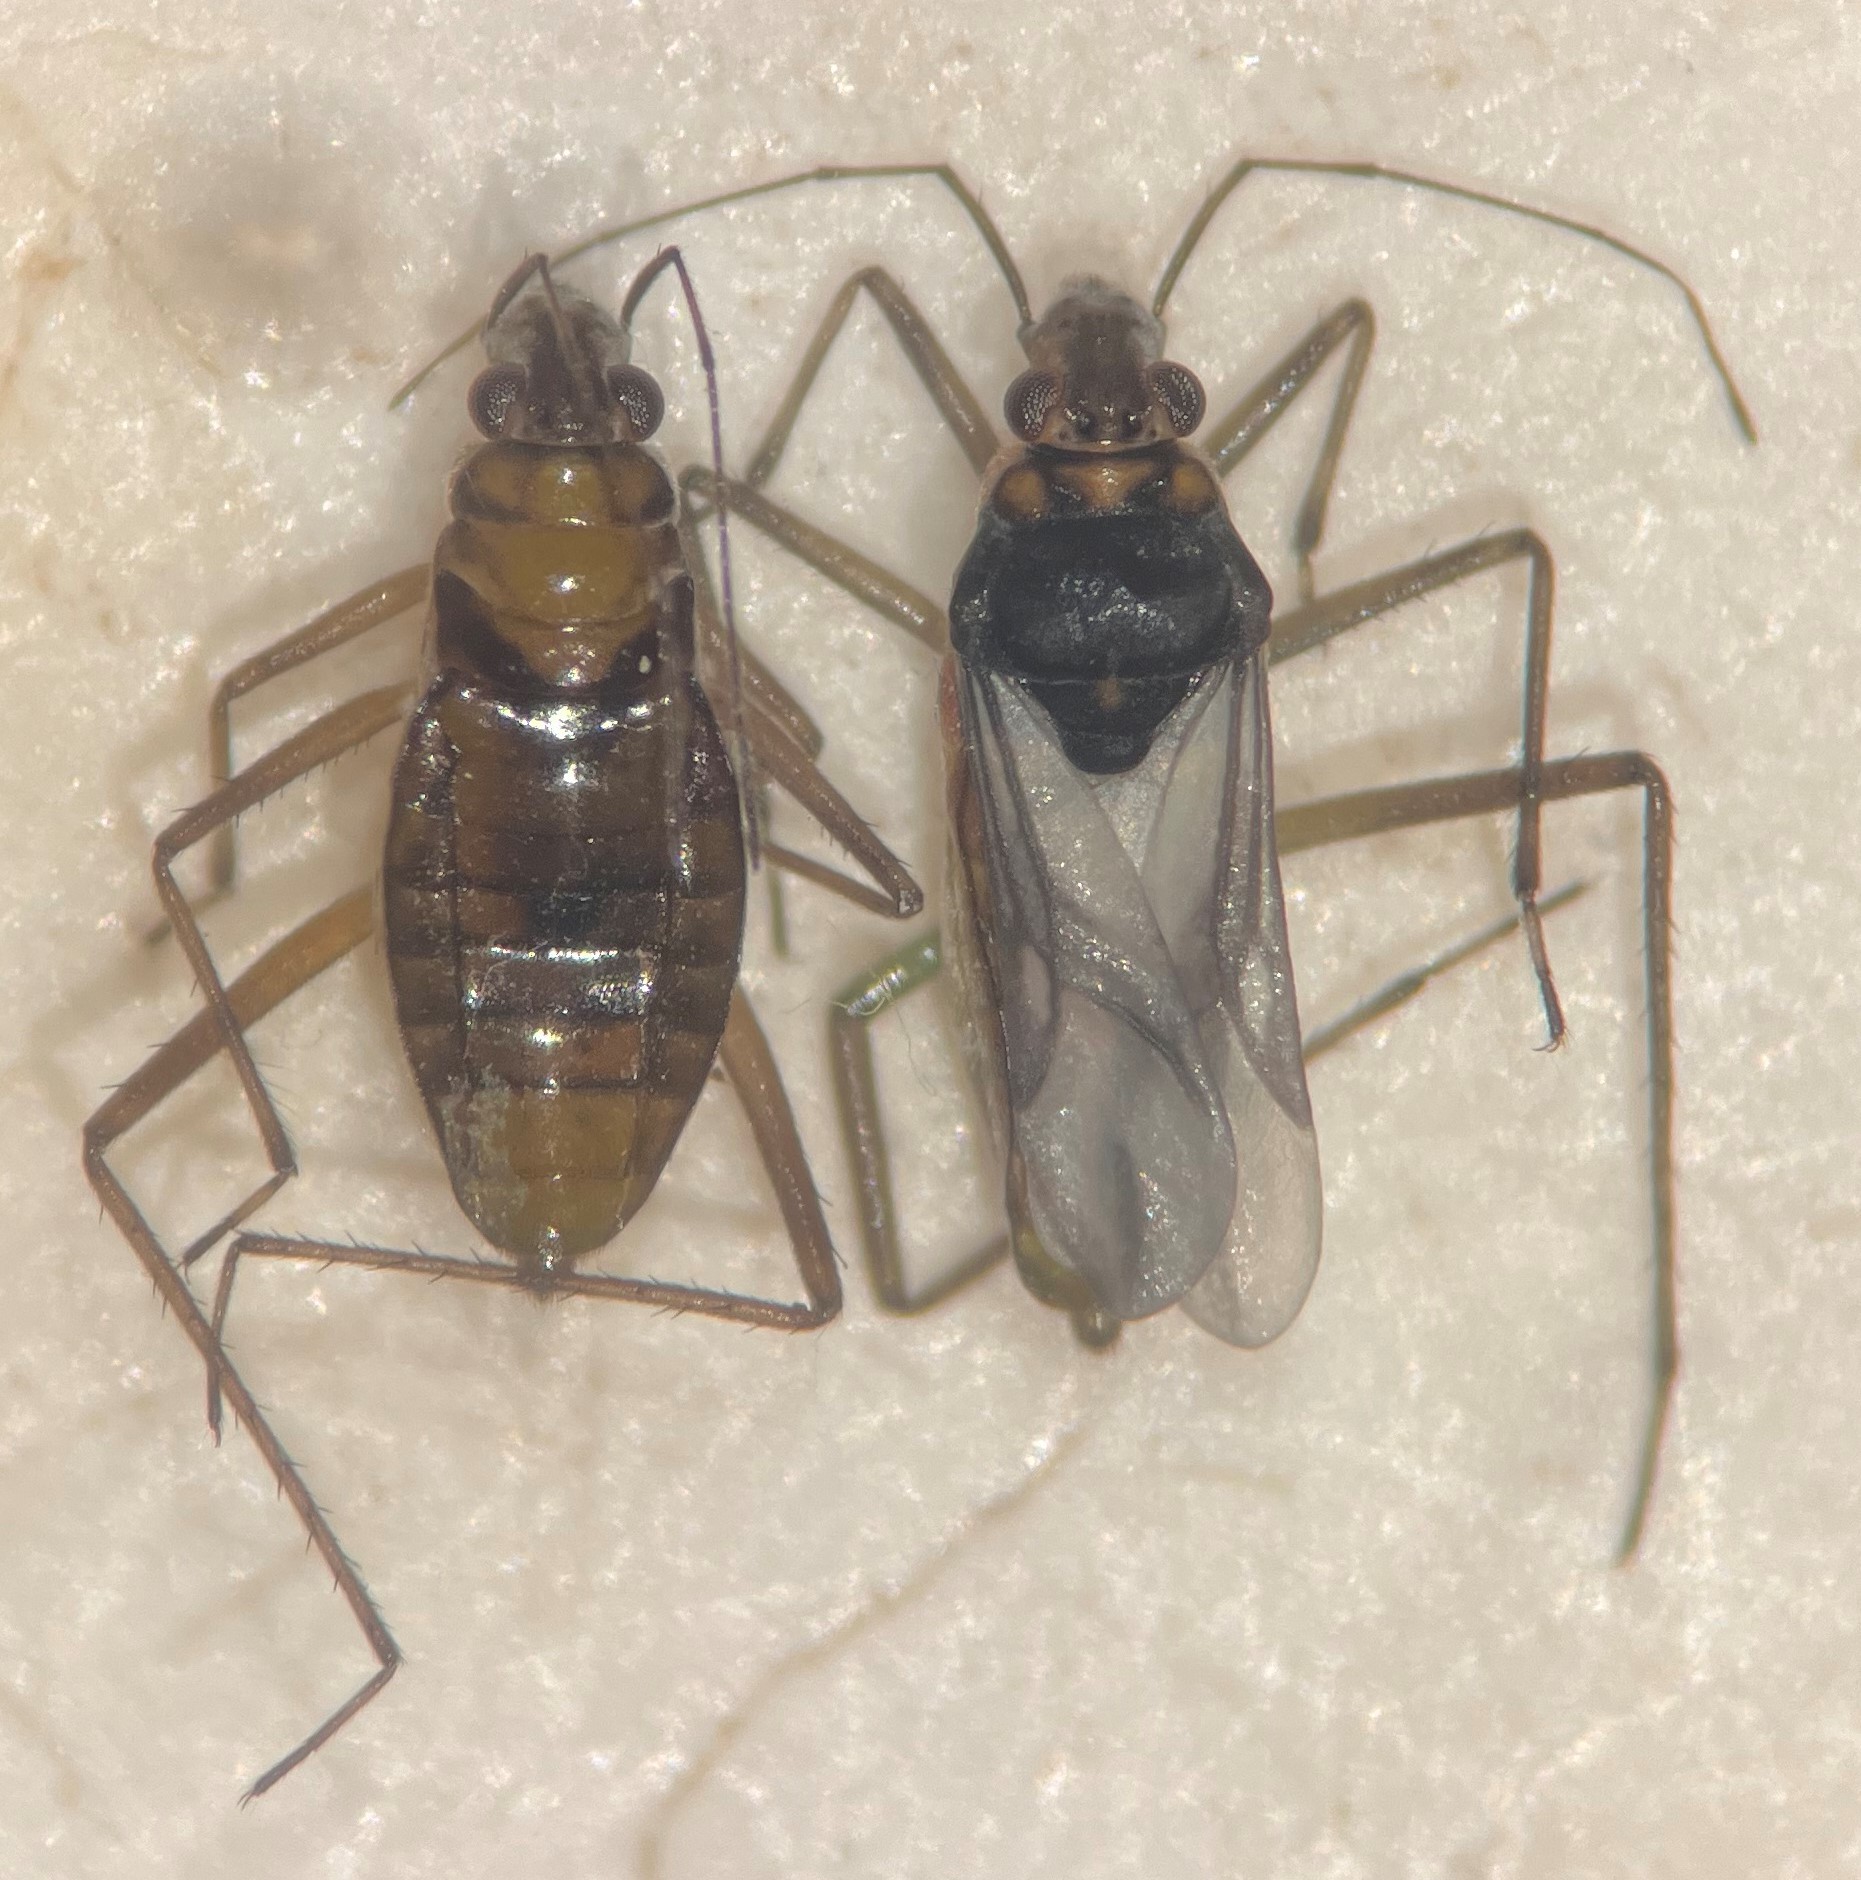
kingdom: Animalia
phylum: Arthropoda
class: Insecta
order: Hemiptera
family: Mesoveliidae
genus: Mesovelia
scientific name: Mesovelia mulsanti
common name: Water treaders
